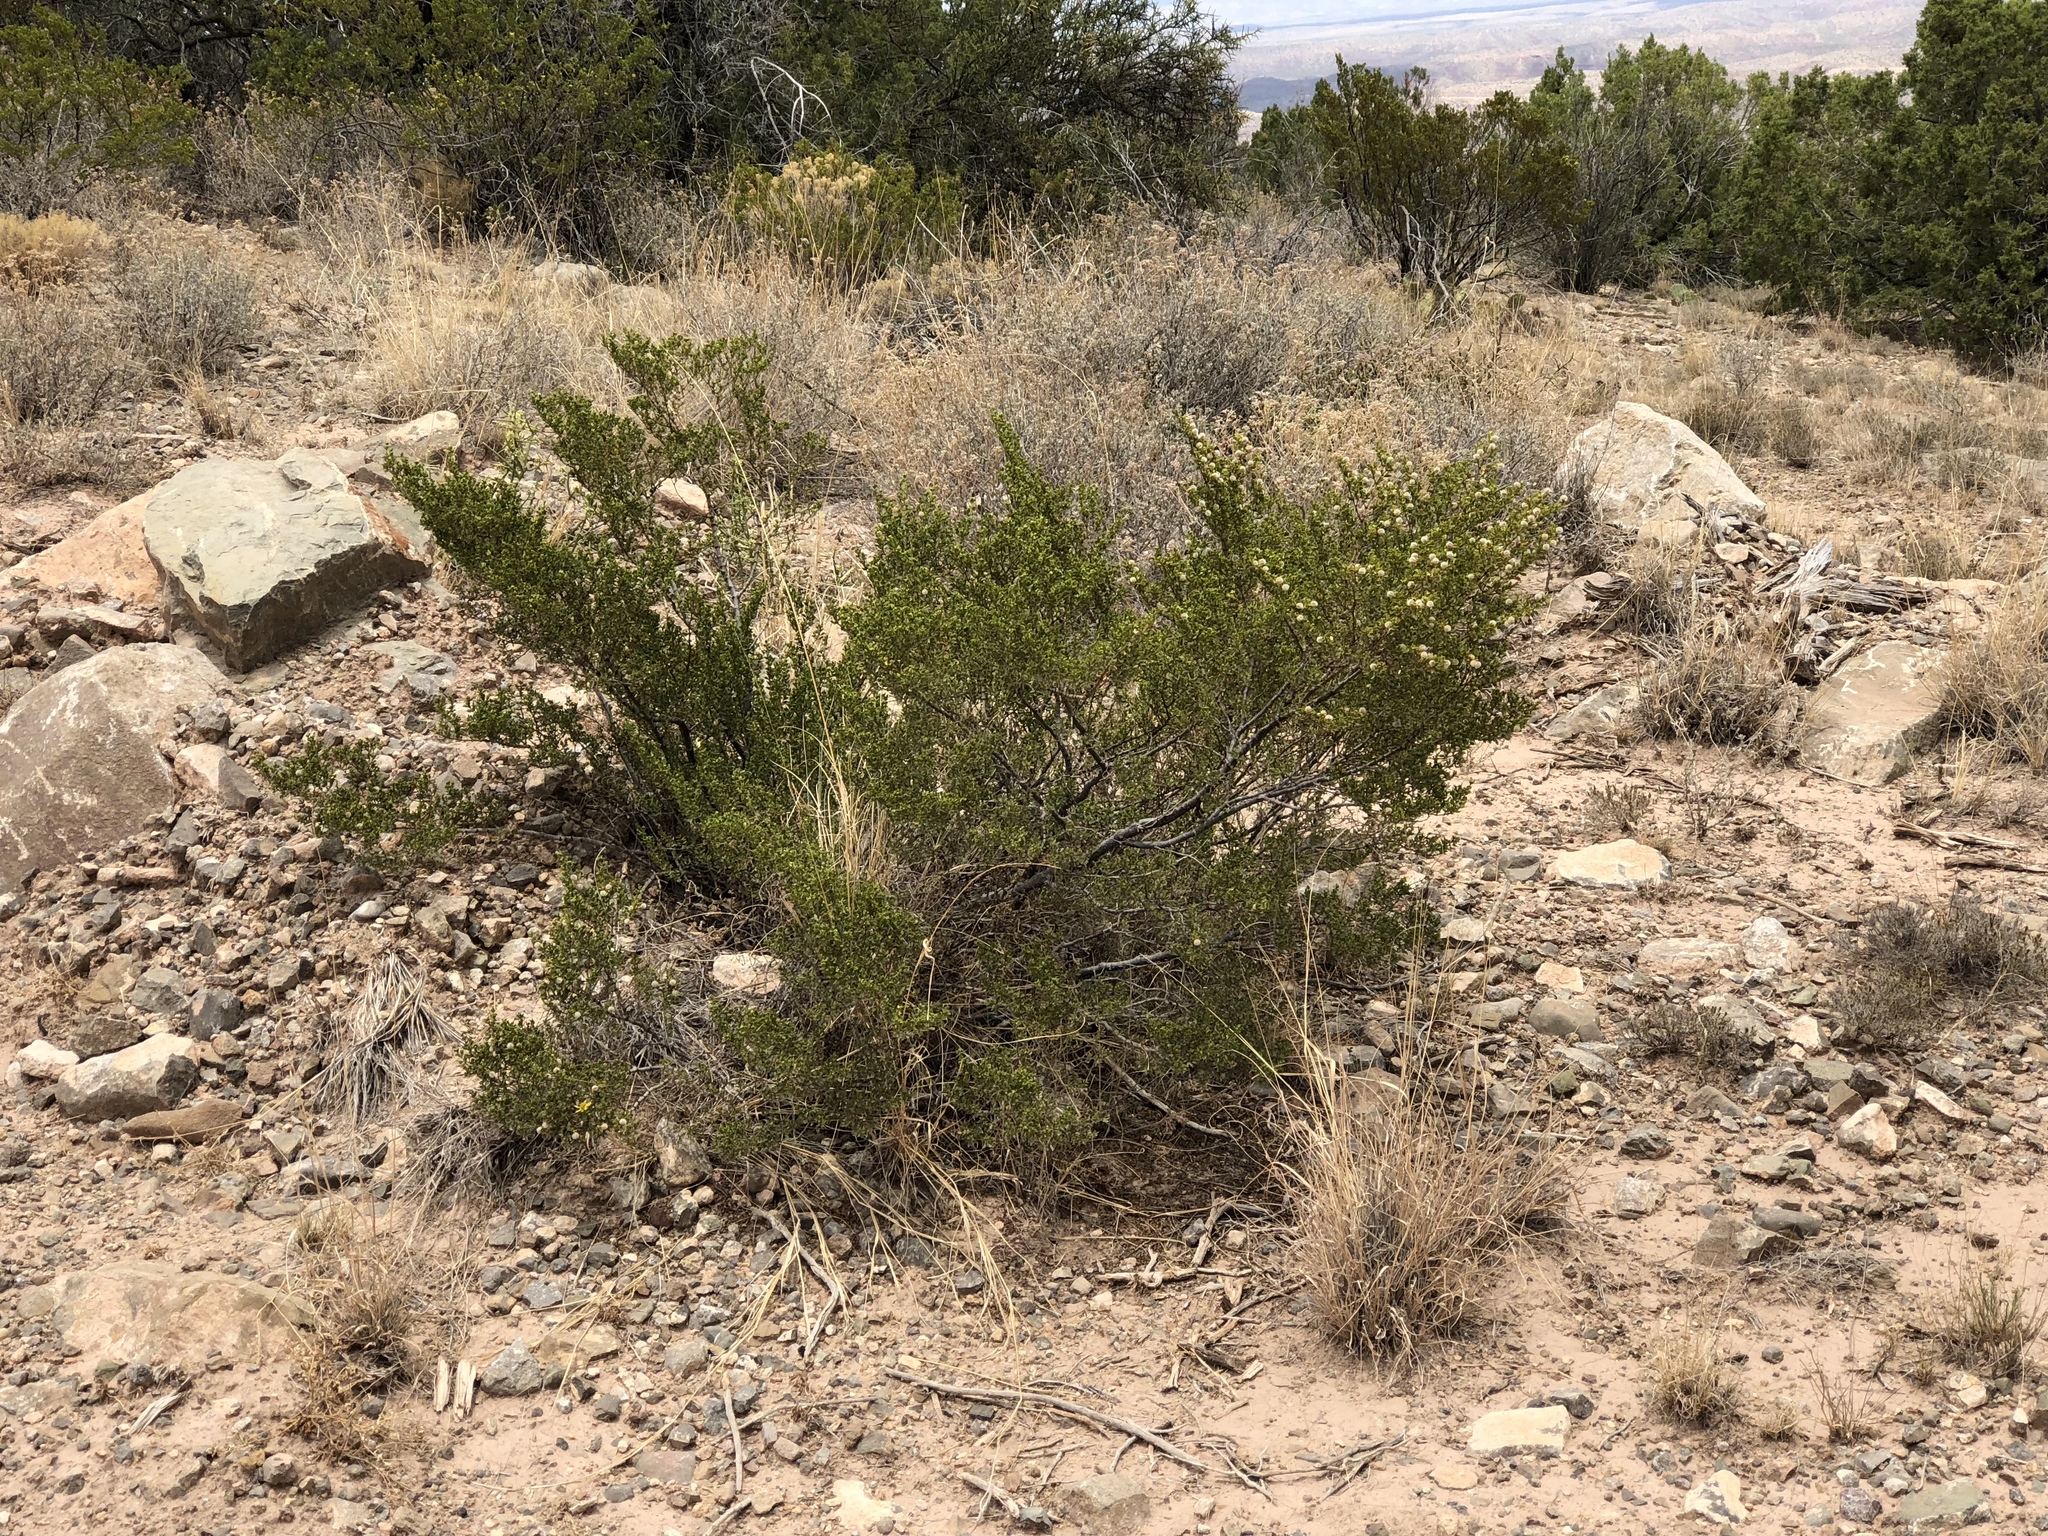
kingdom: Plantae
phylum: Tracheophyta
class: Magnoliopsida
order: Zygophyllales
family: Zygophyllaceae
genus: Larrea
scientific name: Larrea tridentata
